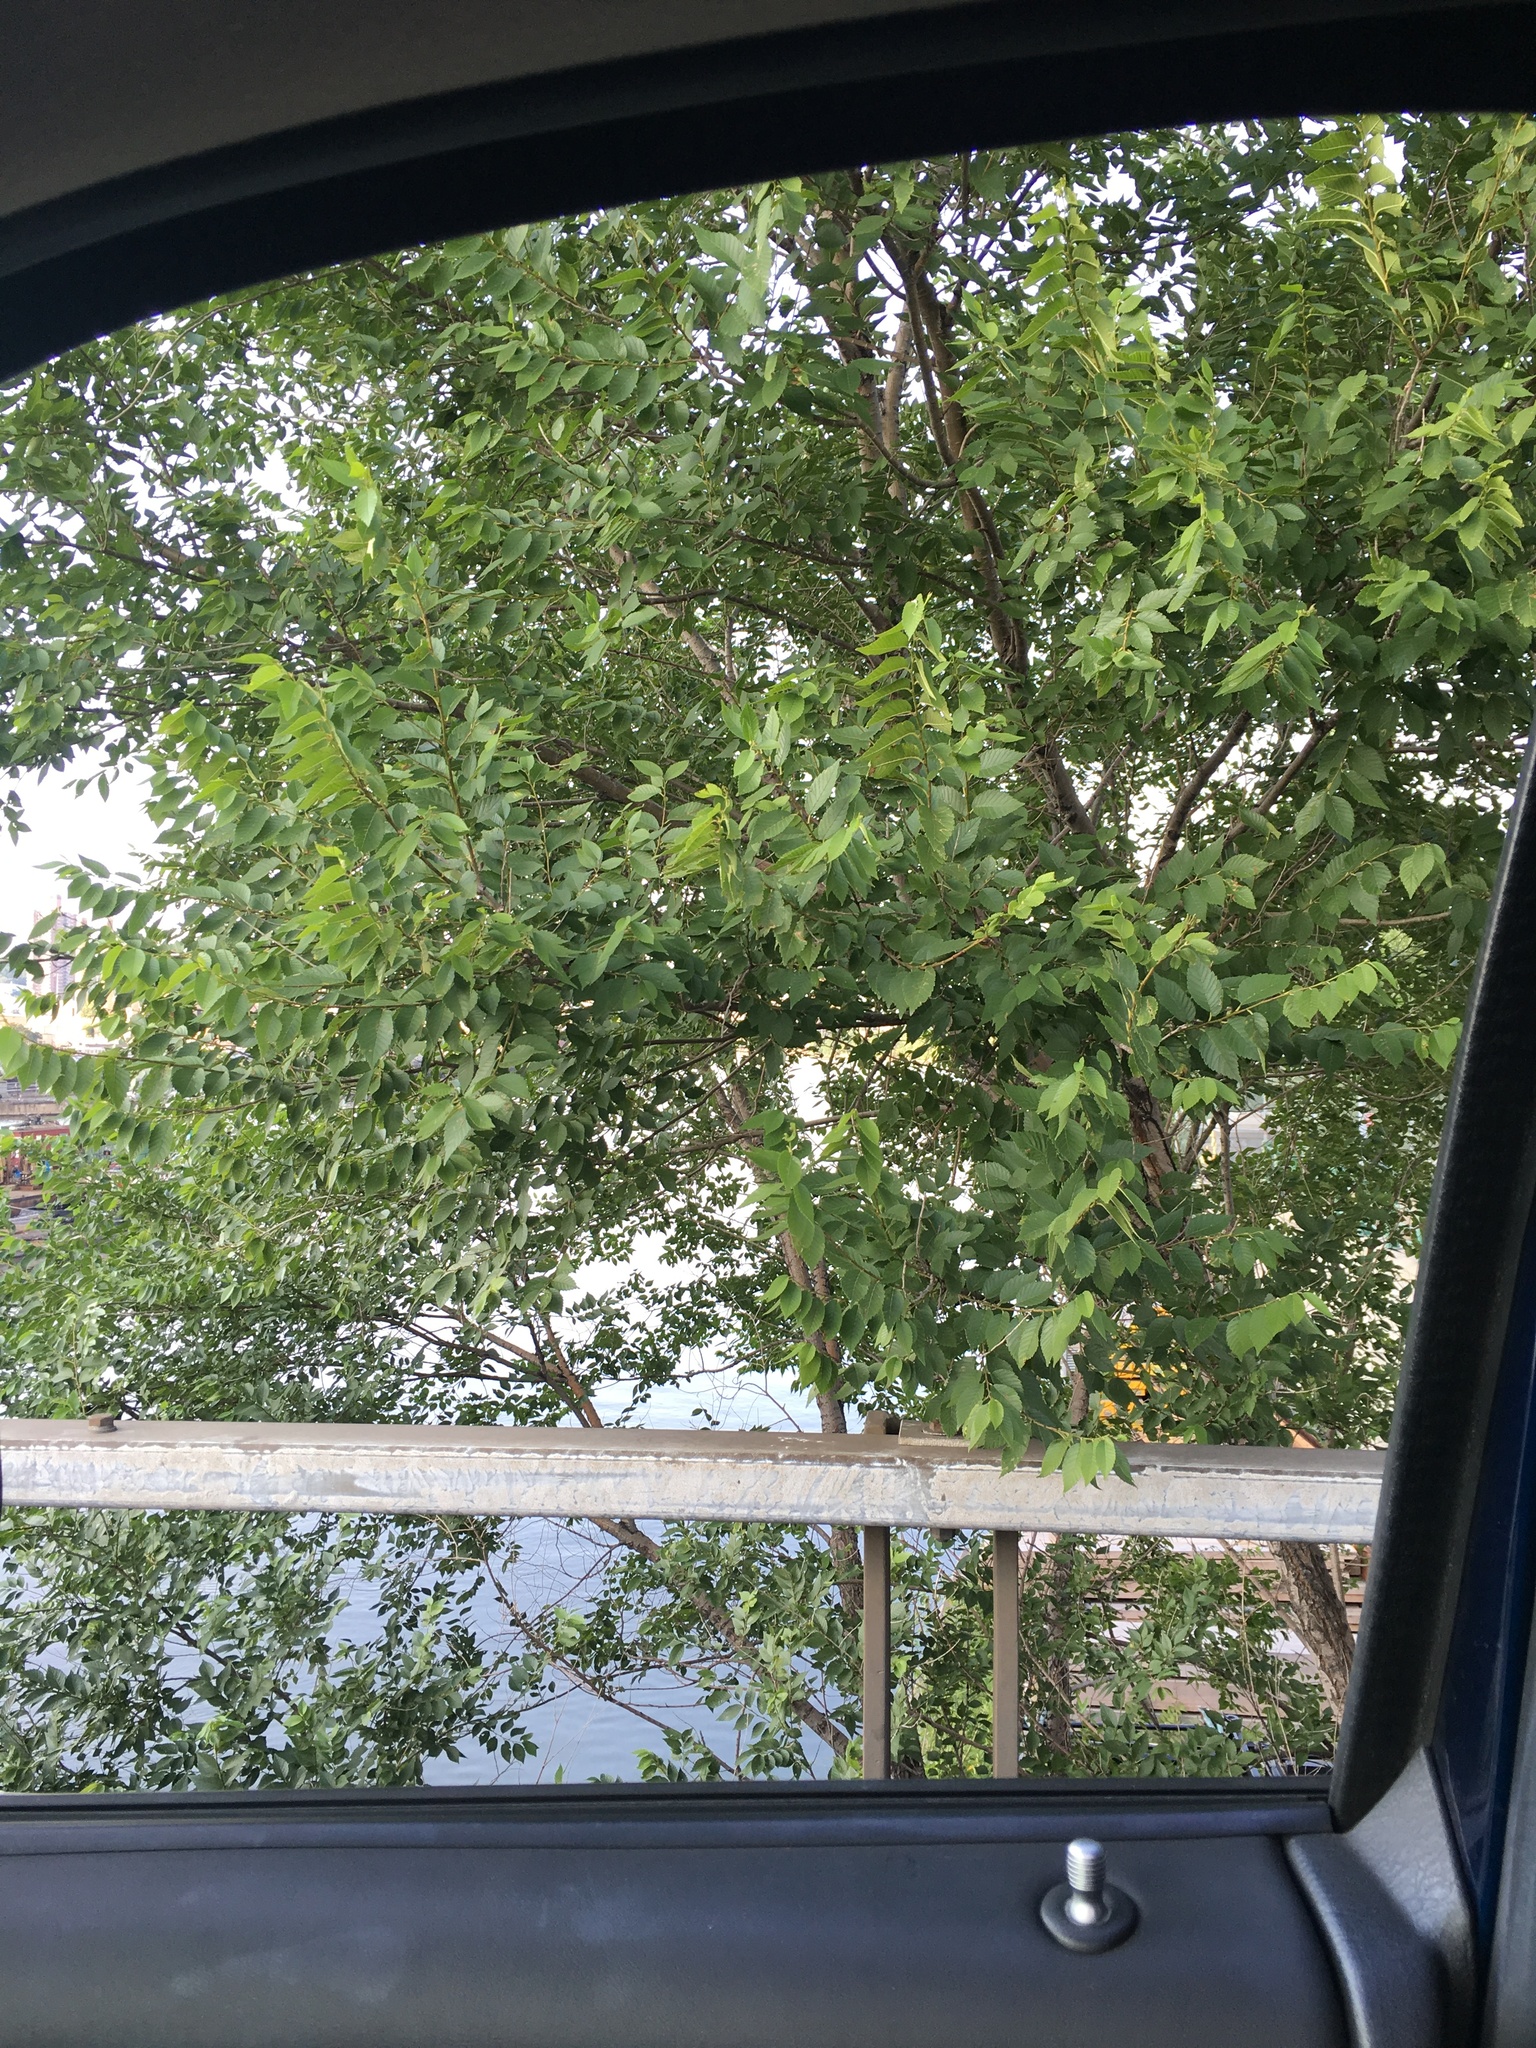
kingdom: Plantae
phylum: Tracheophyta
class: Magnoliopsida
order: Rosales
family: Ulmaceae
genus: Ulmus
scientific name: Ulmus pumila
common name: Siberian elm
